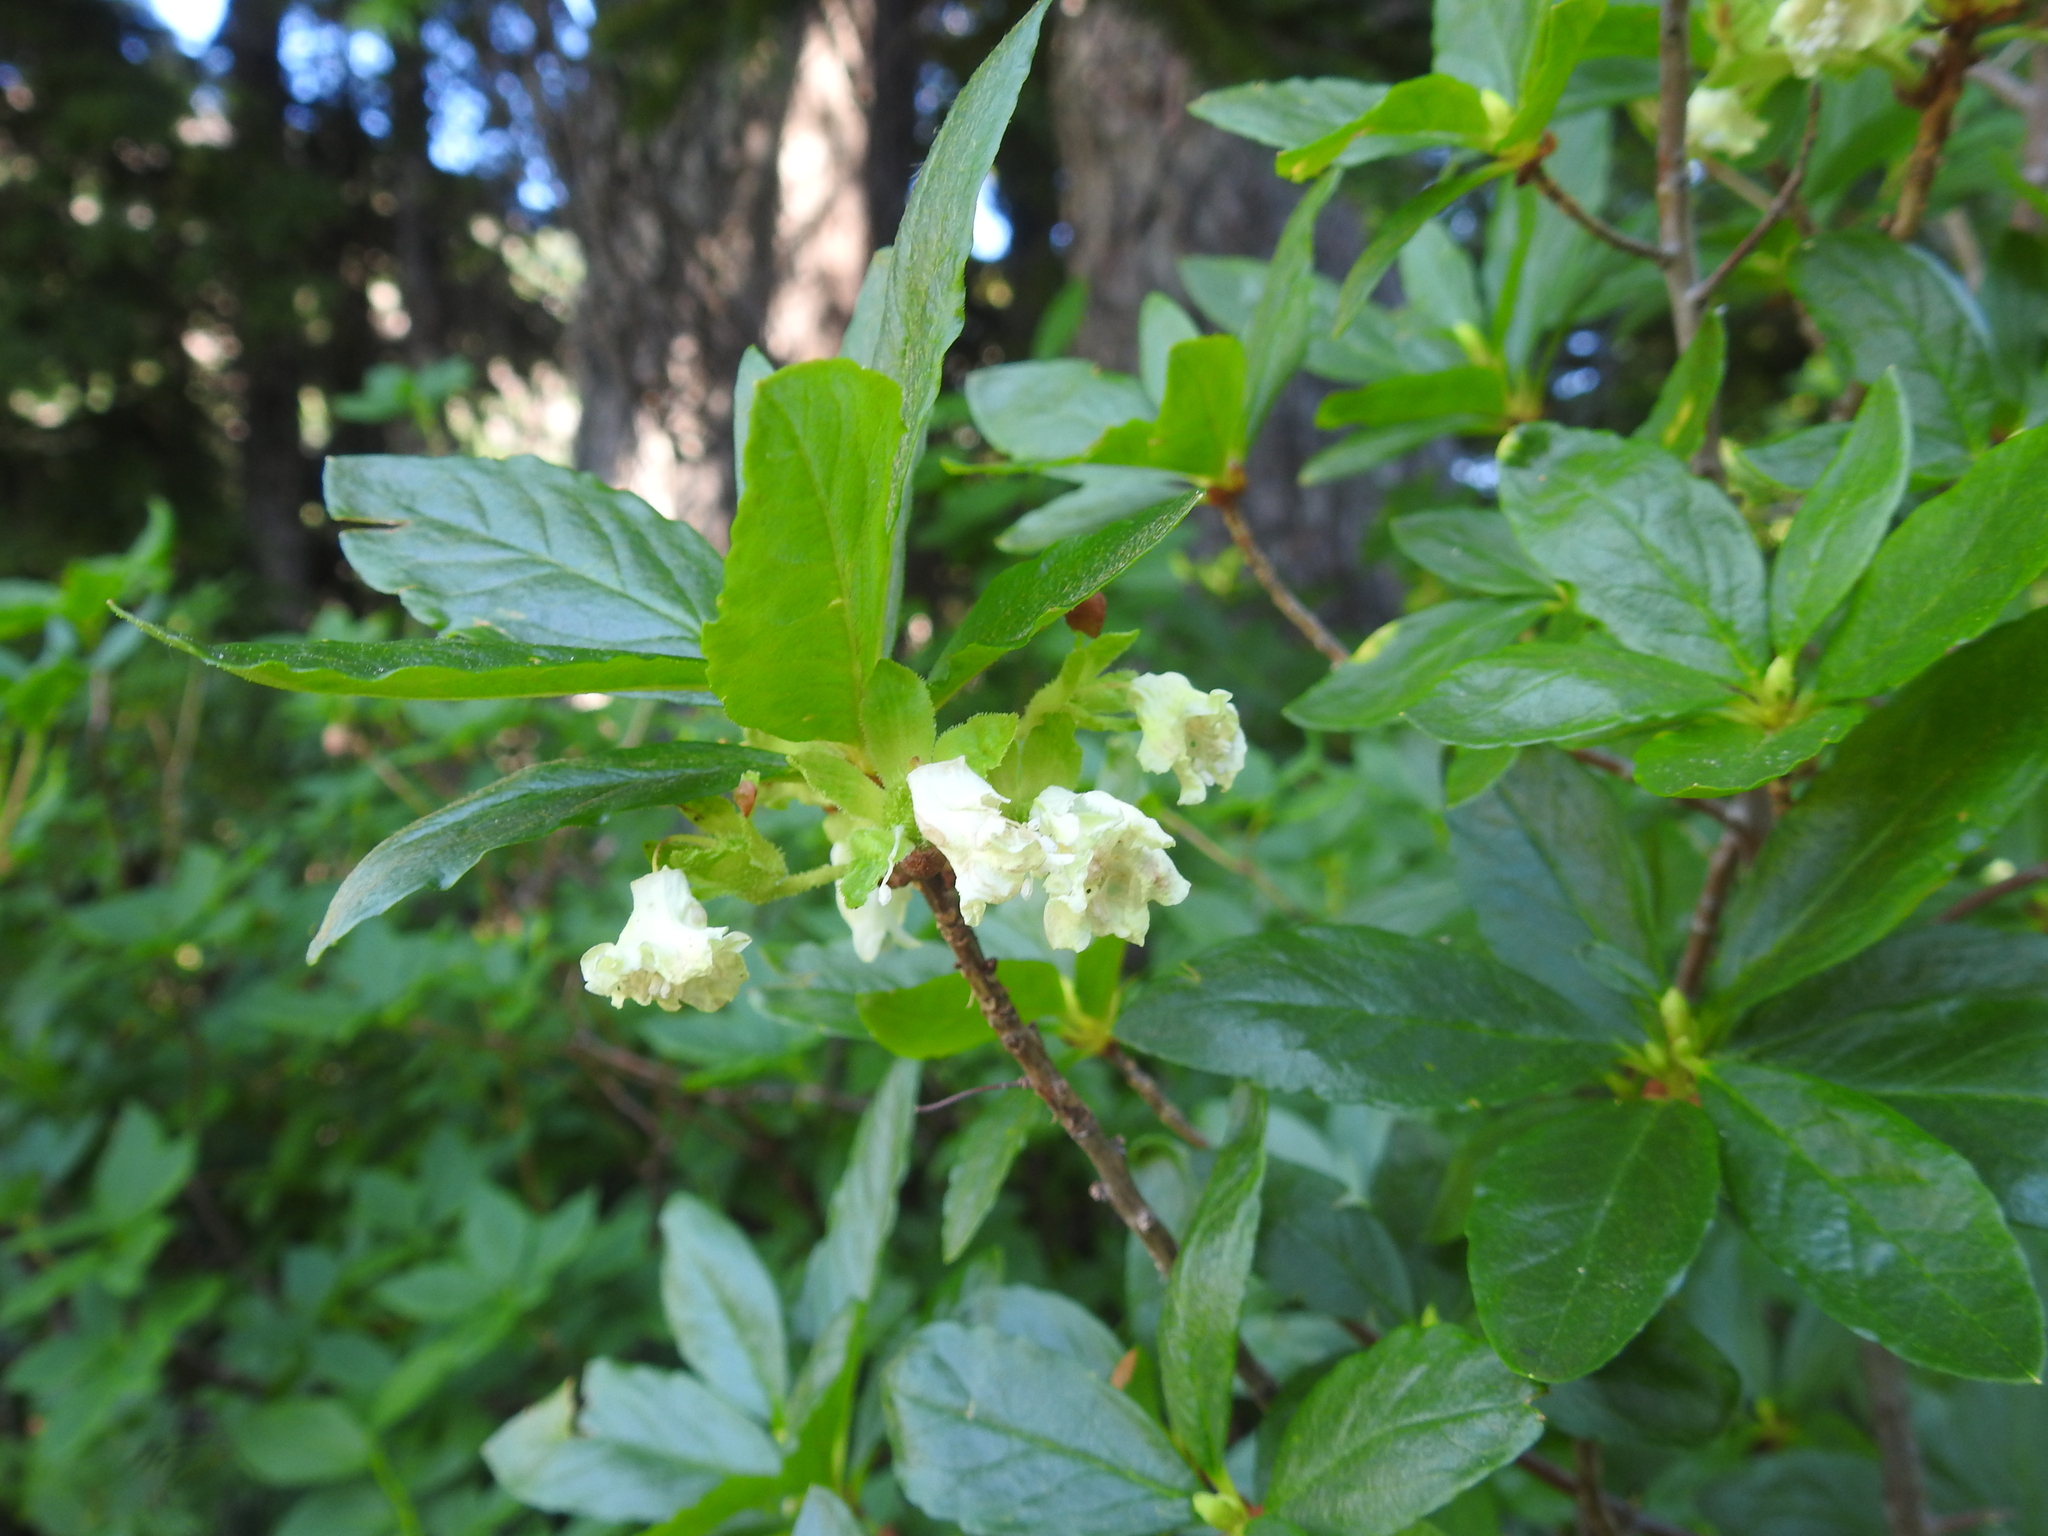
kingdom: Plantae
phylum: Tracheophyta
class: Magnoliopsida
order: Ericales
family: Ericaceae
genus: Rhododendron
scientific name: Rhododendron albiflorum
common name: White rhododendron
